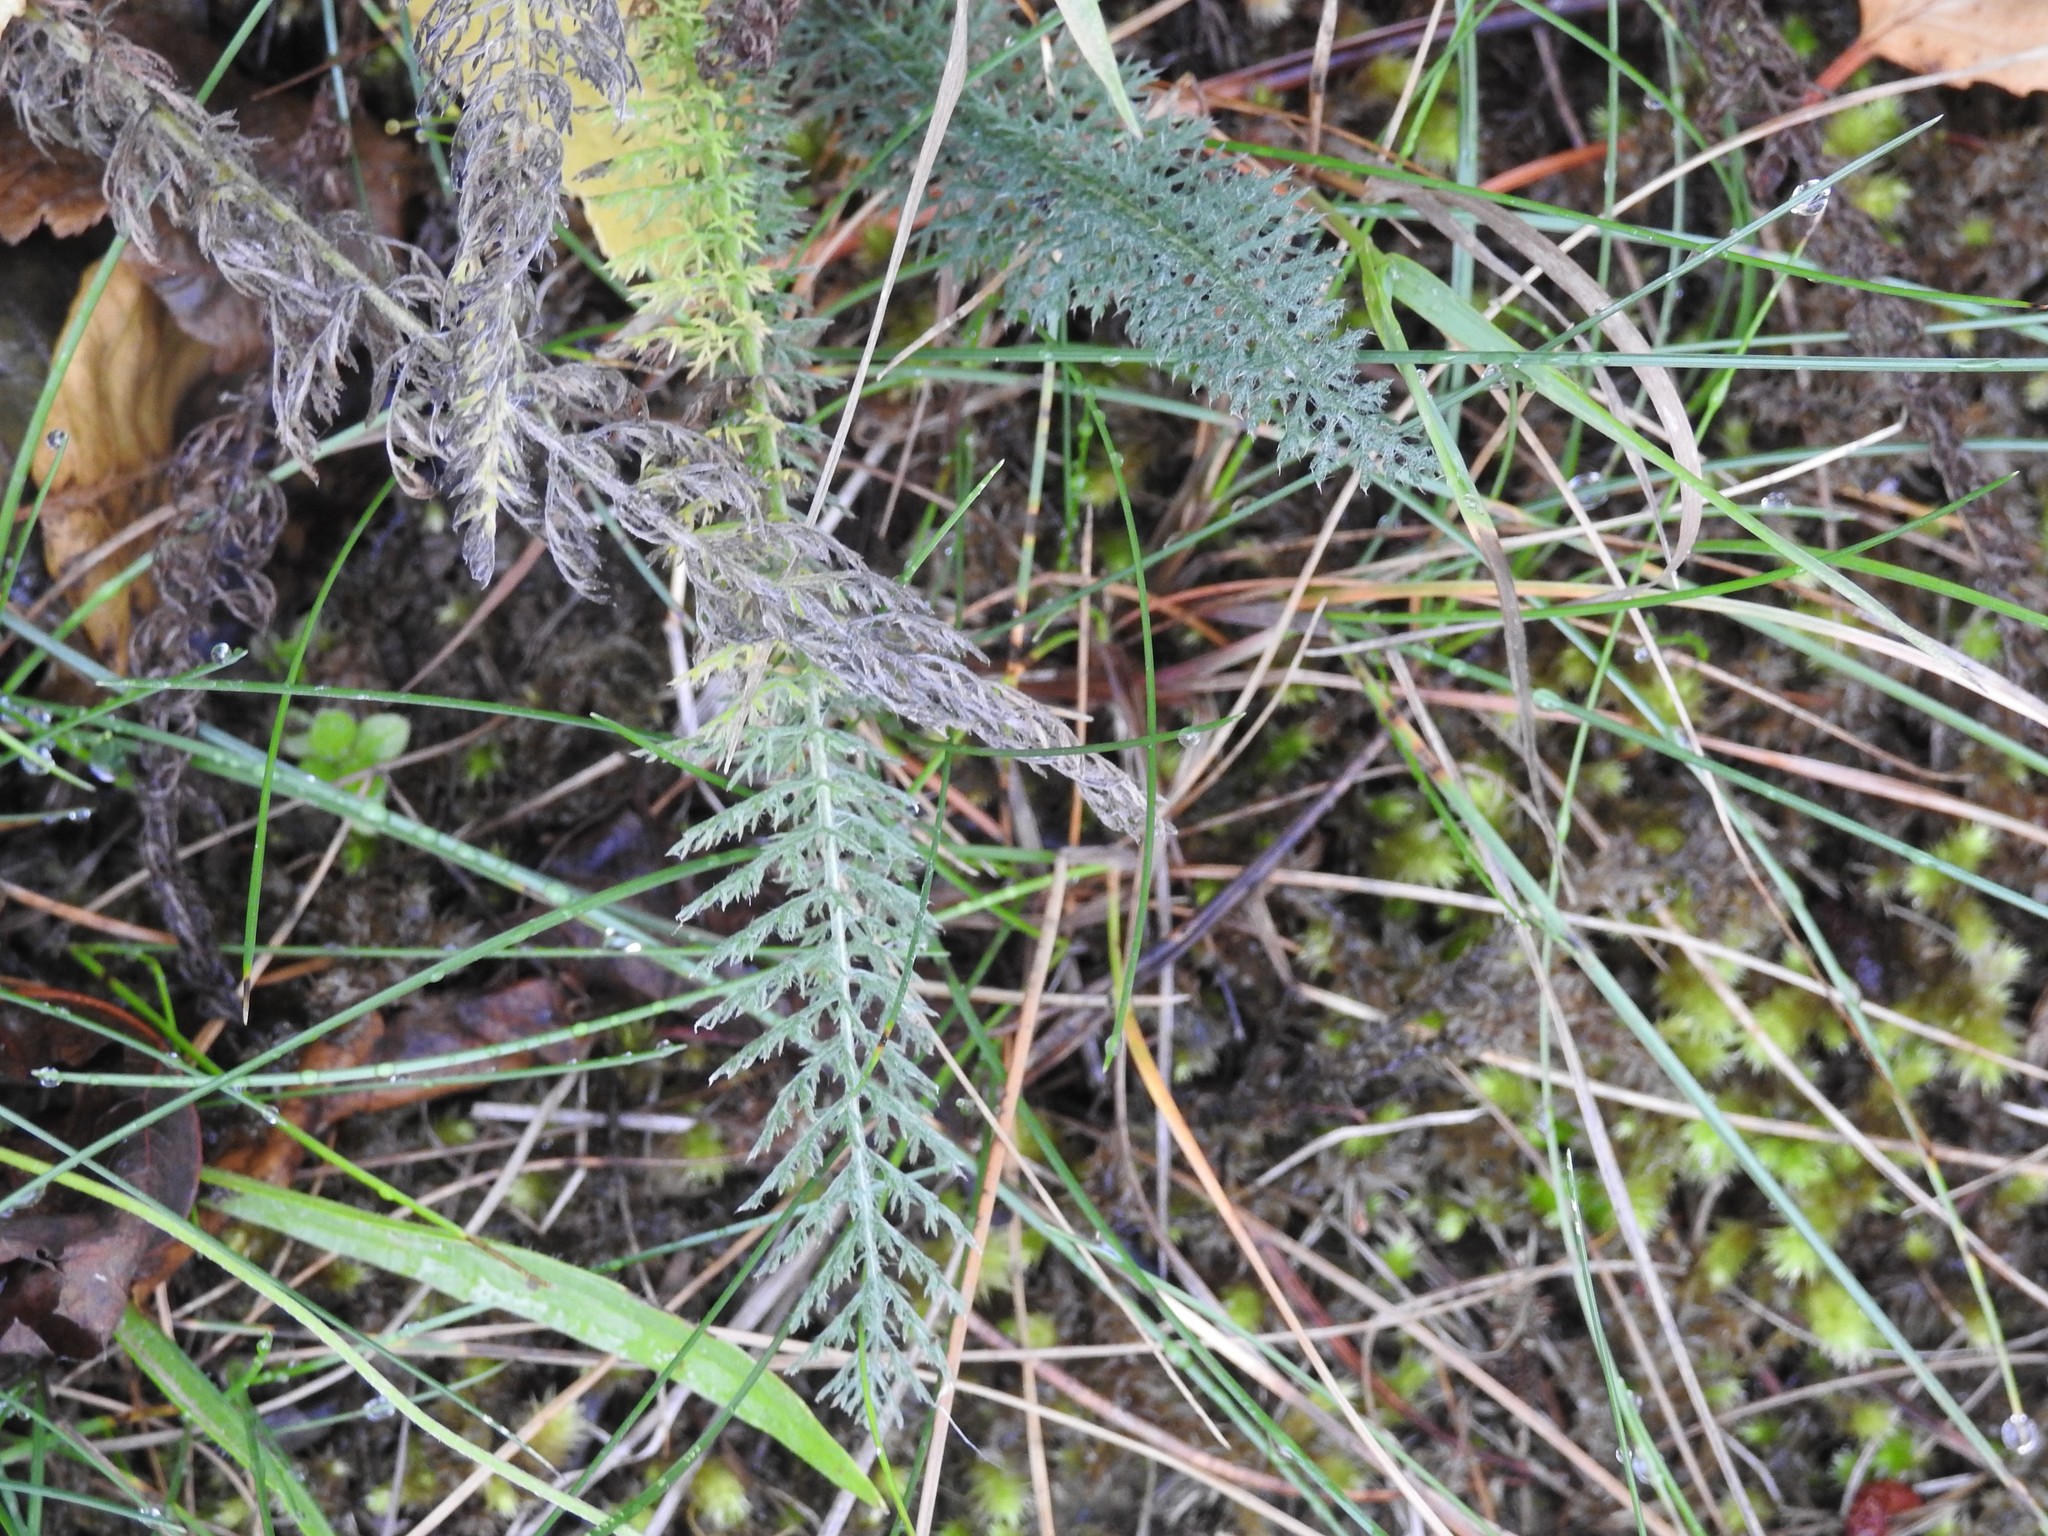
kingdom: Plantae
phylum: Tracheophyta
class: Magnoliopsida
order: Asterales
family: Asteraceae
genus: Achillea
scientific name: Achillea millefolium
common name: Yarrow
